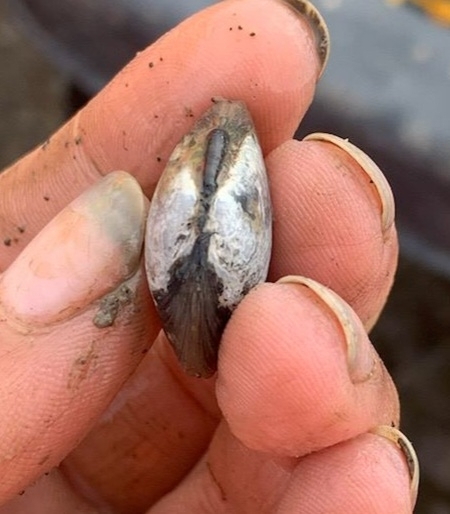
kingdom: Animalia
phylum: Mollusca
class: Bivalvia
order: Cardiida
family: Tellinidae
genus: Macoma
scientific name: Macoma petalum
